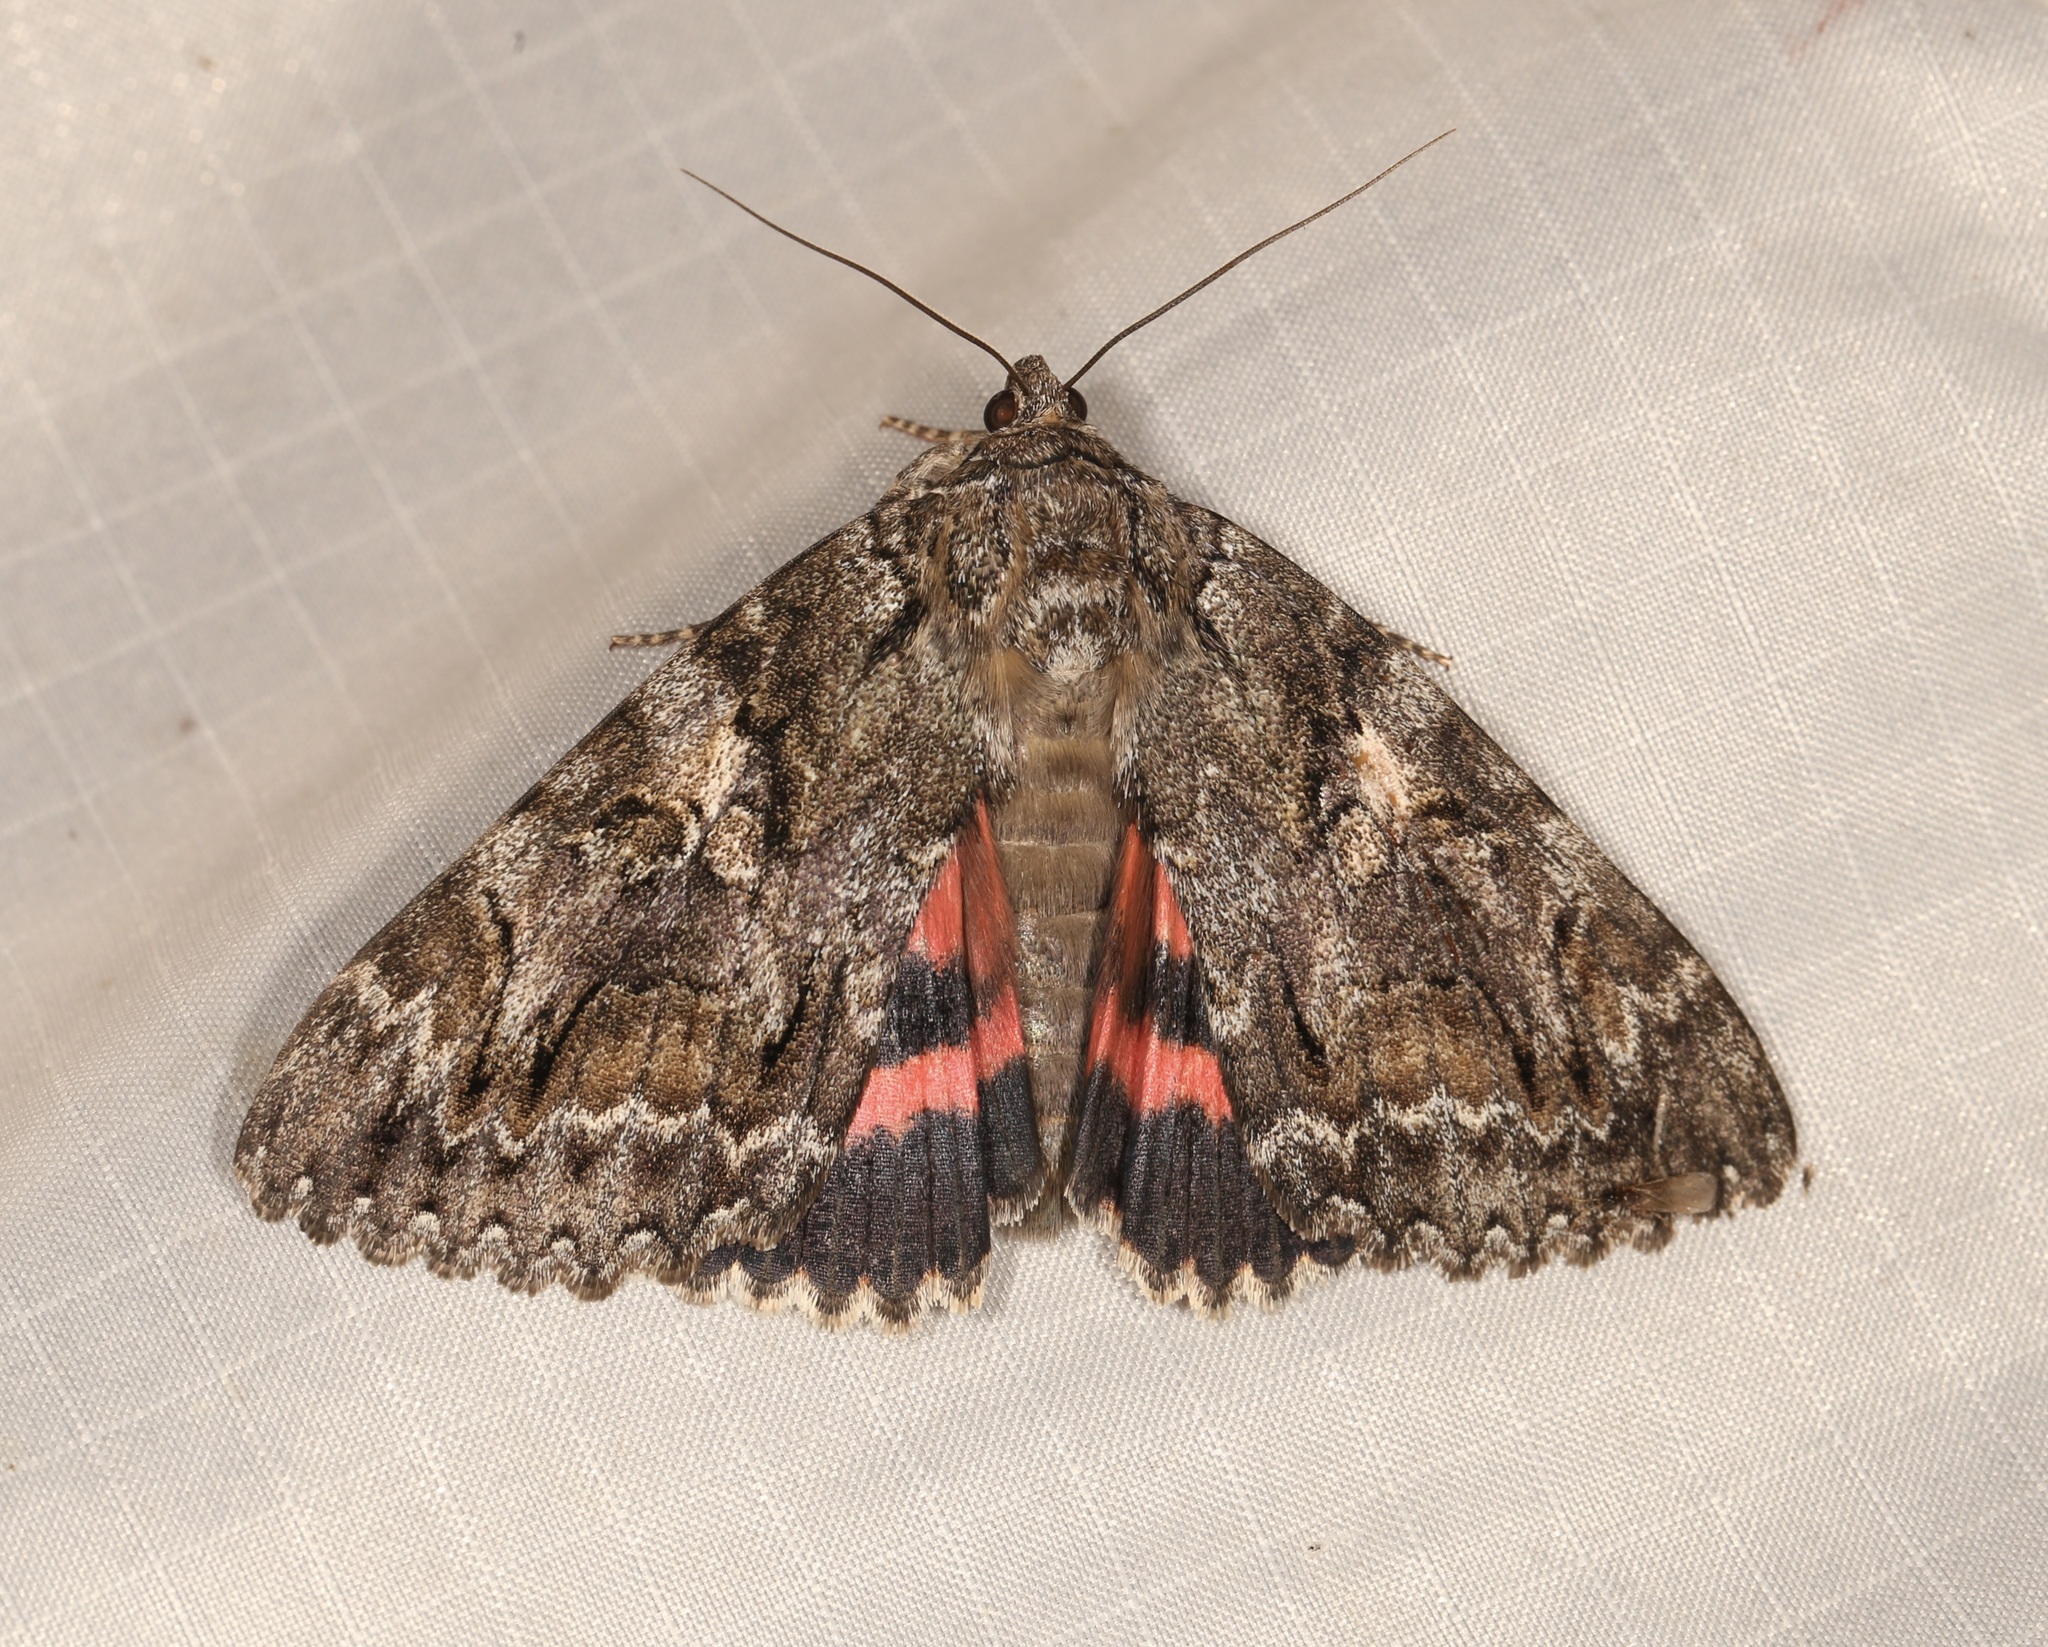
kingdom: Animalia
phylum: Arthropoda
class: Insecta
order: Lepidoptera
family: Erebidae
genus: Catocala
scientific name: Catocala aholibah
